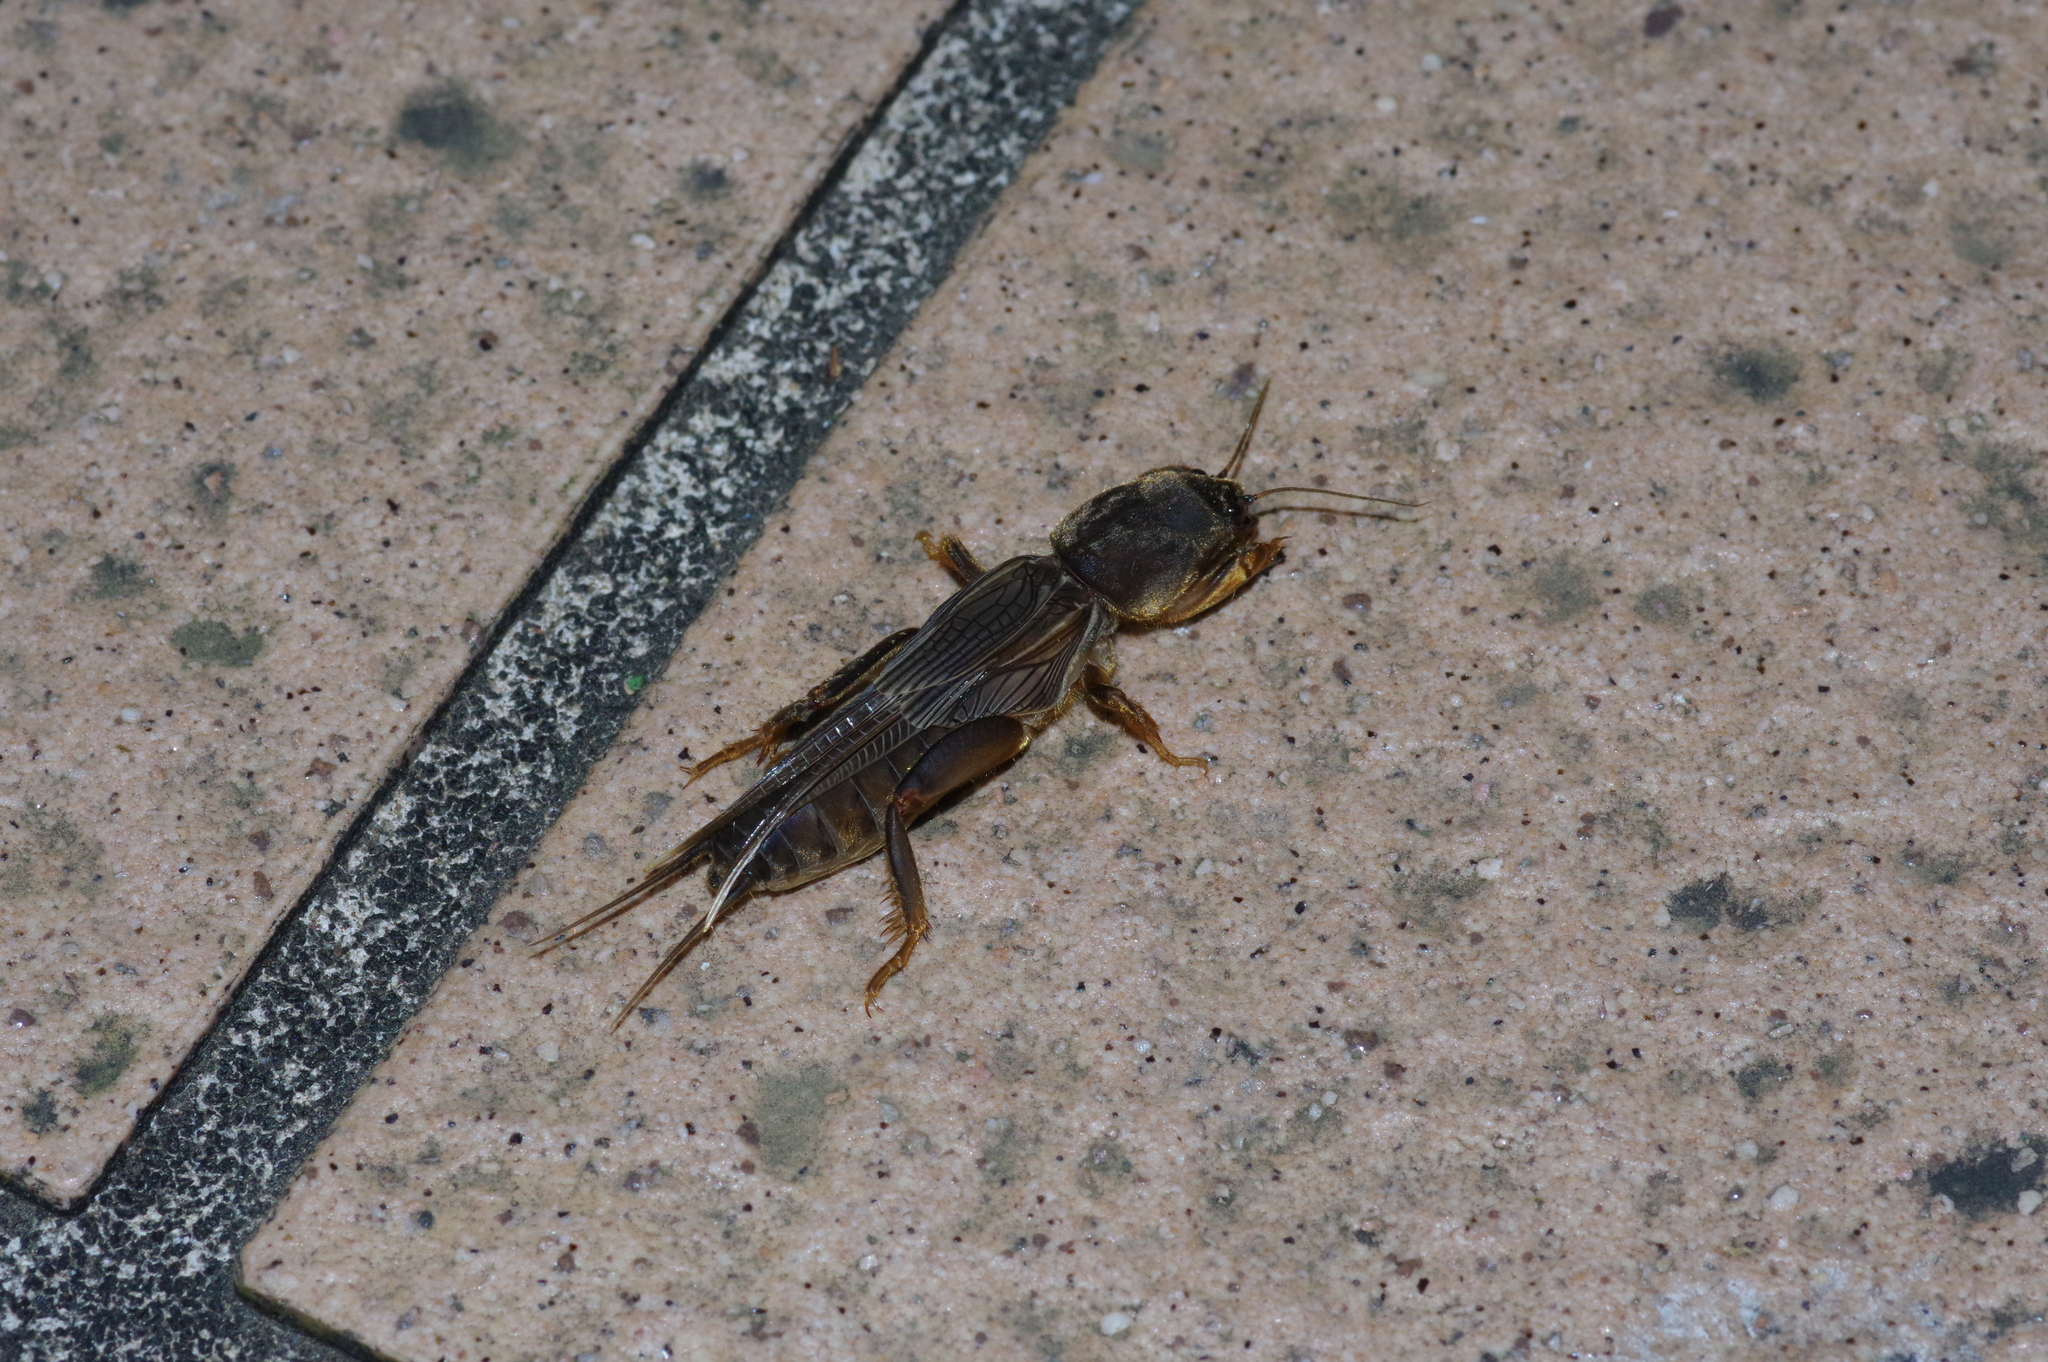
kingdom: Animalia
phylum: Arthropoda
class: Insecta
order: Orthoptera
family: Gryllotalpidae
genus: Gryllotalpa
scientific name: Gryllotalpa orientalis
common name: Grasshopper
